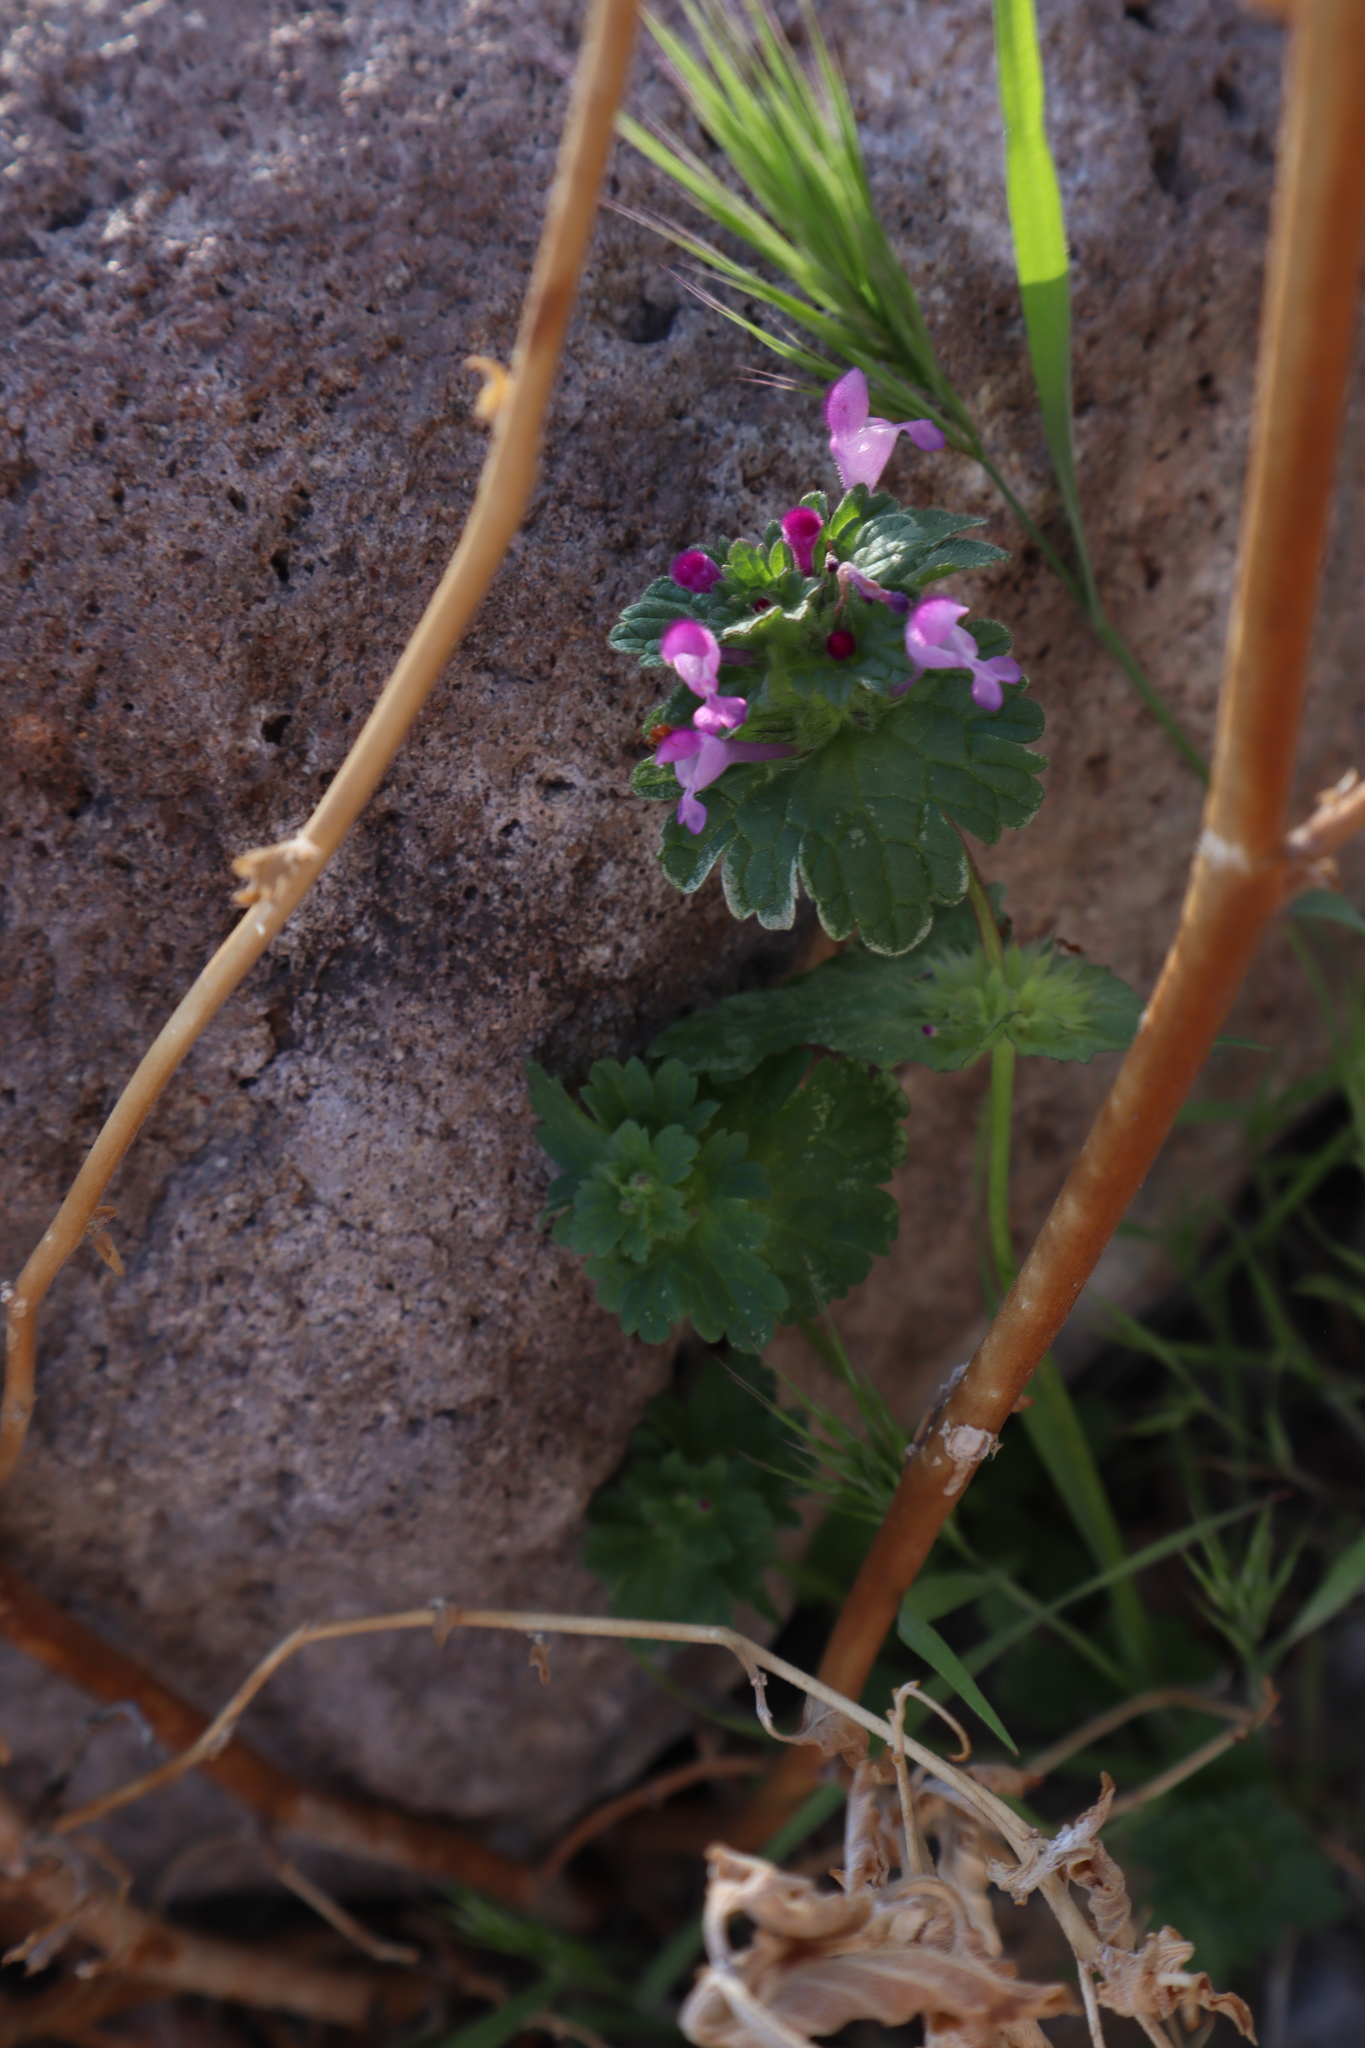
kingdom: Plantae
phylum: Tracheophyta
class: Magnoliopsida
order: Lamiales
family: Lamiaceae
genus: Lamium
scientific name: Lamium amplexicaule
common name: Henbit dead-nettle
